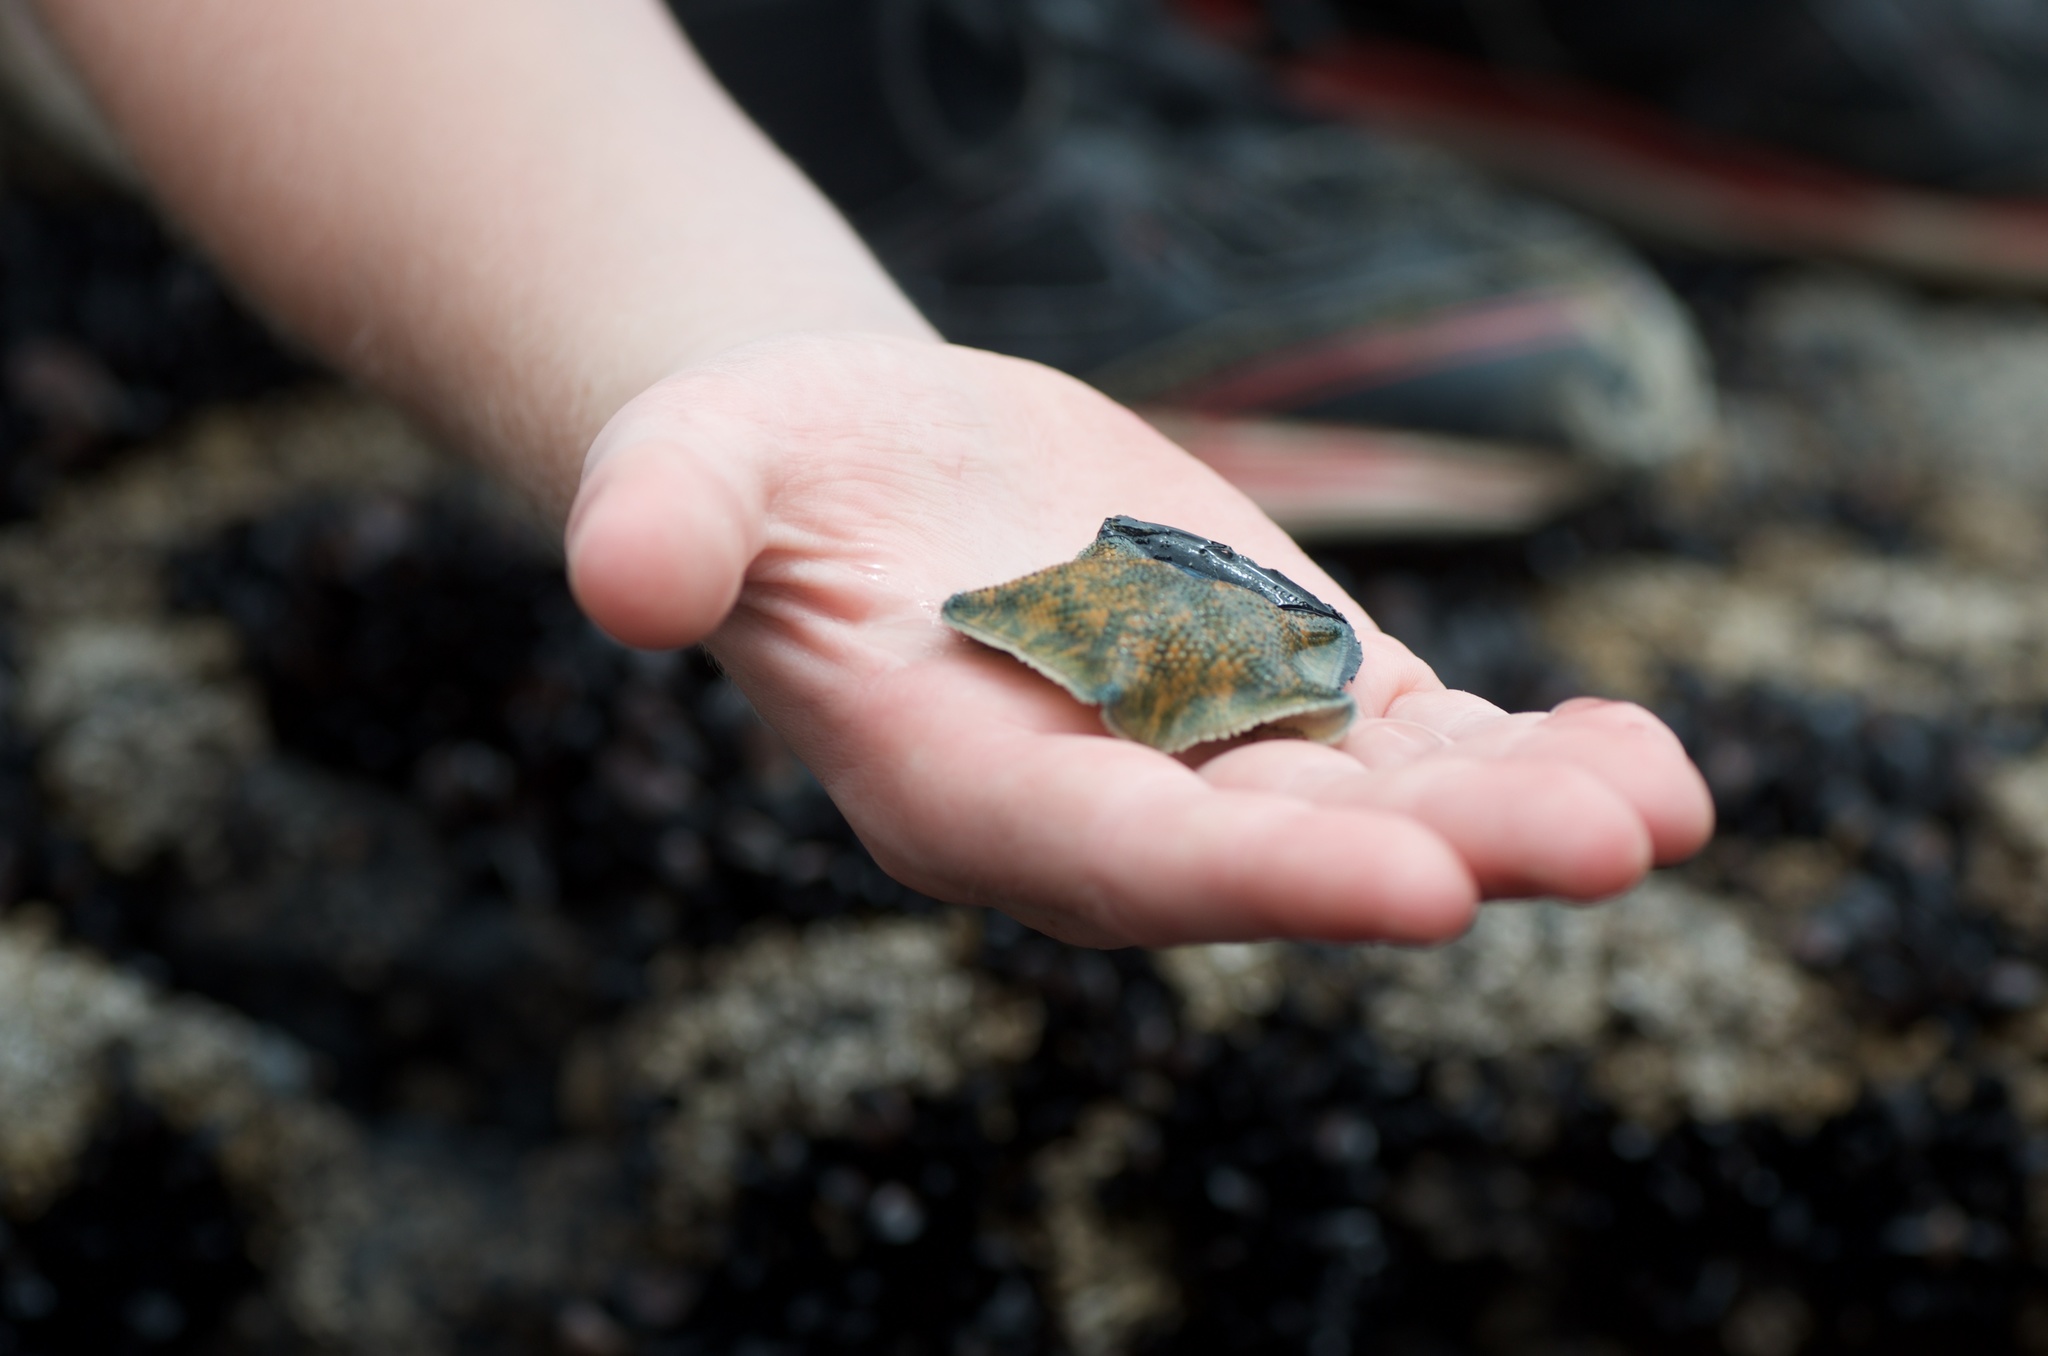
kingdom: Animalia
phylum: Echinodermata
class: Asteroidea
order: Valvatida
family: Asterinidae
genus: Patiriella
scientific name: Patiriella regularis
